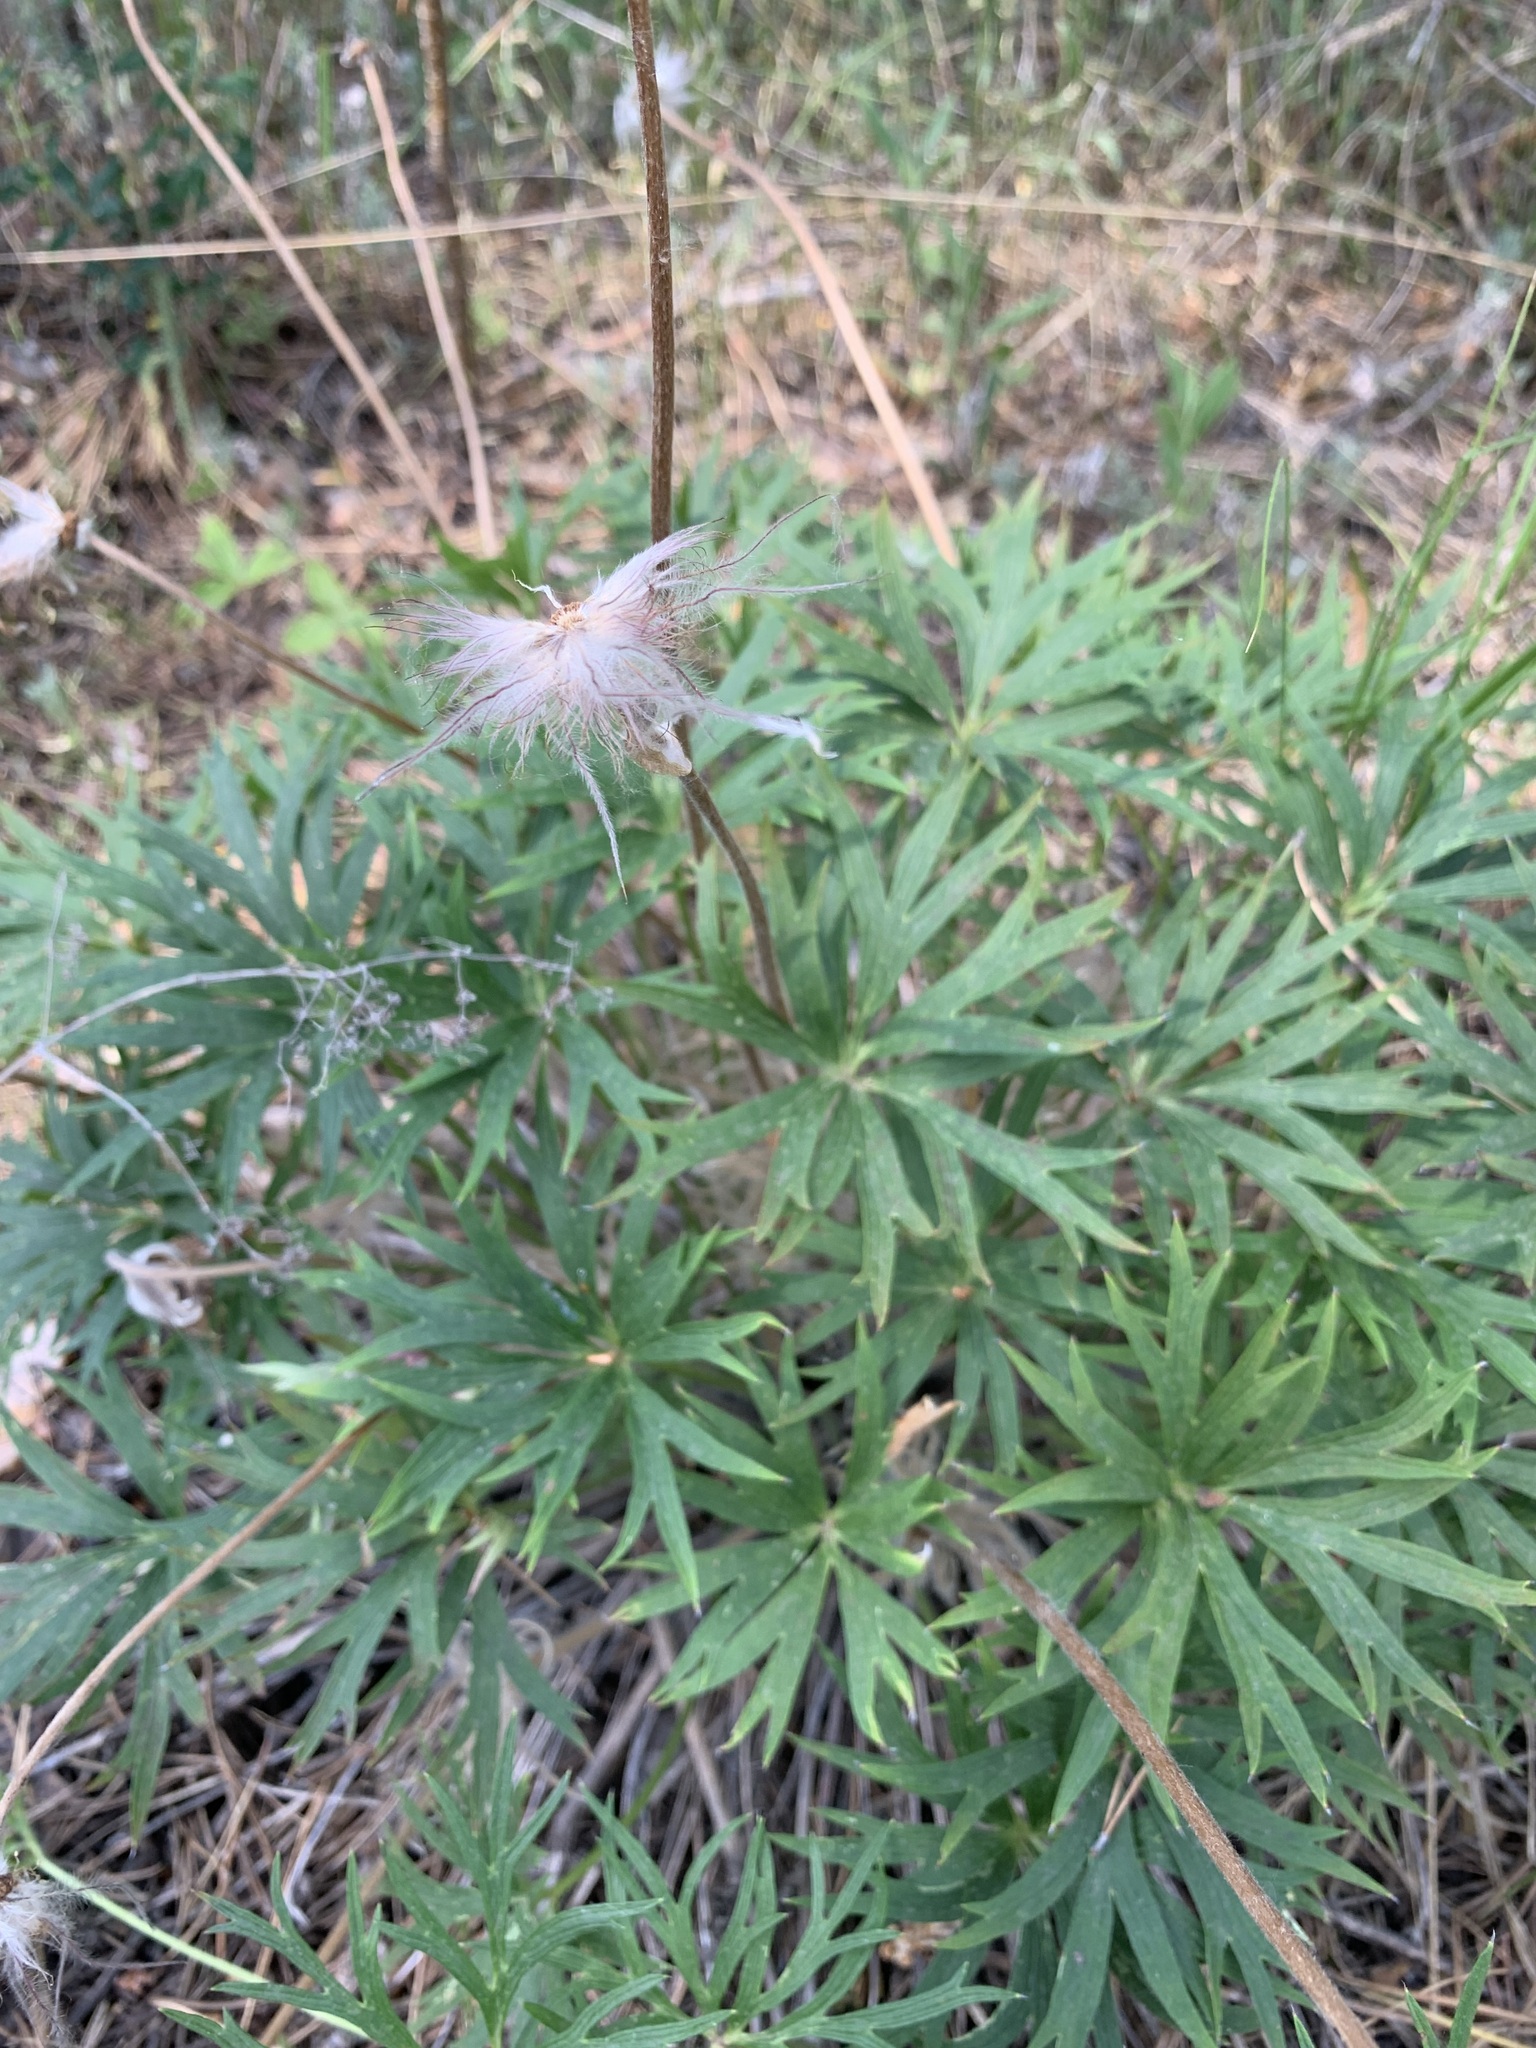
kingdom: Plantae
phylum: Tracheophyta
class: Magnoliopsida
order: Ranunculales
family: Ranunculaceae
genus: Pulsatilla
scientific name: Pulsatilla patens
